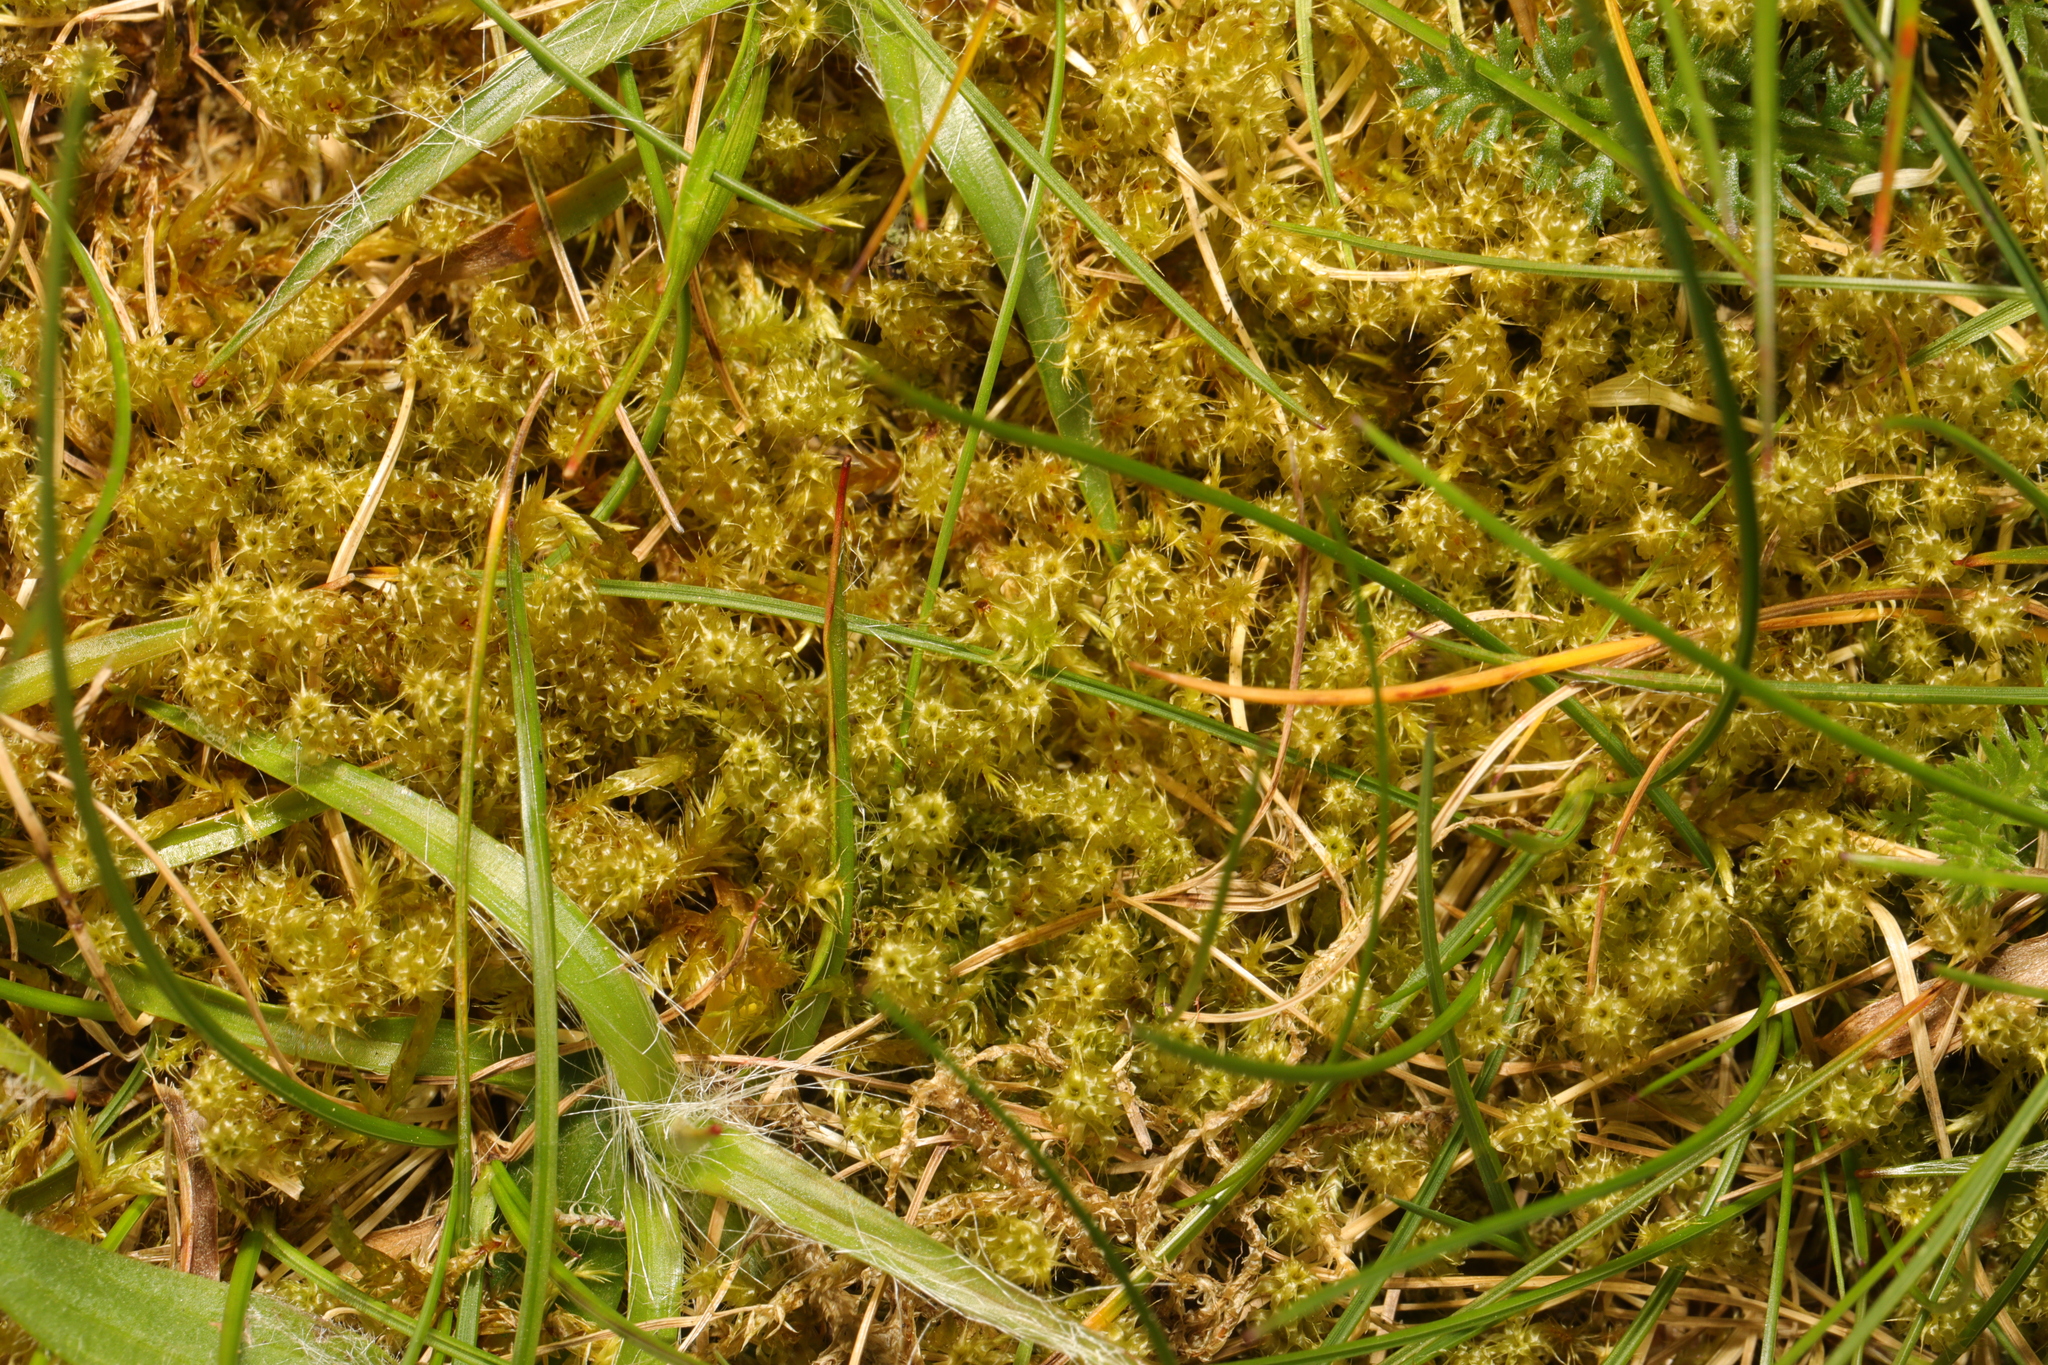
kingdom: Plantae
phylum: Bryophyta
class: Bryopsida
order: Hypnales
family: Hylocomiaceae
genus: Rhytidiadelphus
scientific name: Rhytidiadelphus squarrosus
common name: Springy turf-moss
